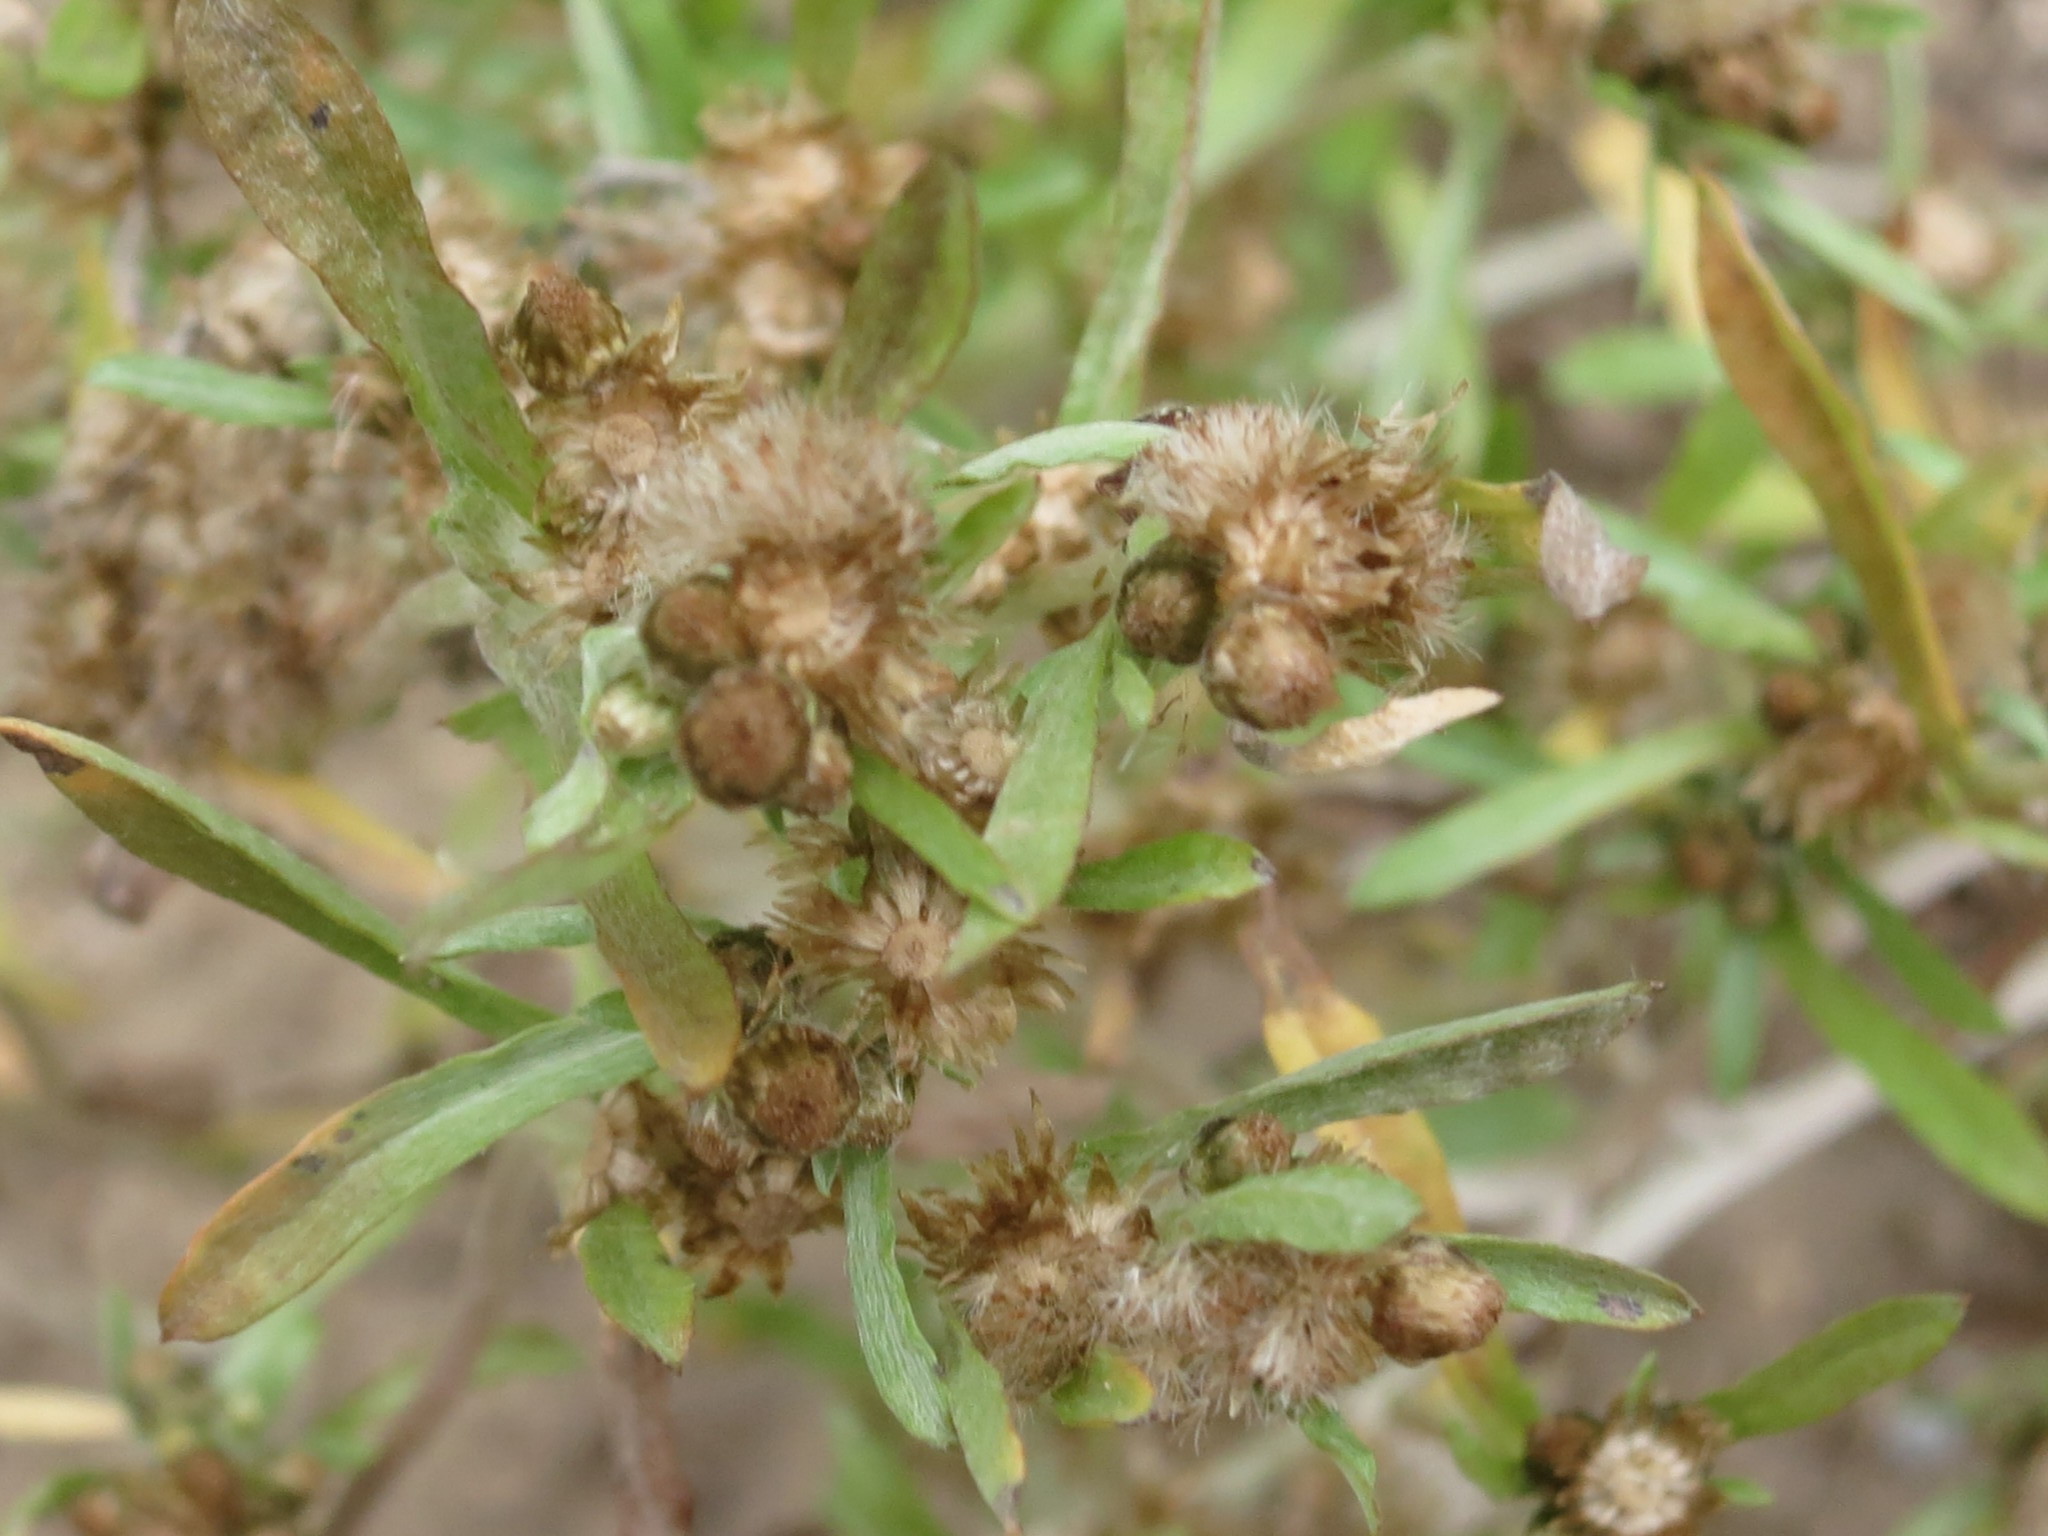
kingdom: Plantae
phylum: Tracheophyta
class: Magnoliopsida
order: Asterales
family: Asteraceae
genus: Gnaphalium
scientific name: Gnaphalium uliginosum
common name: Marsh cudweed
